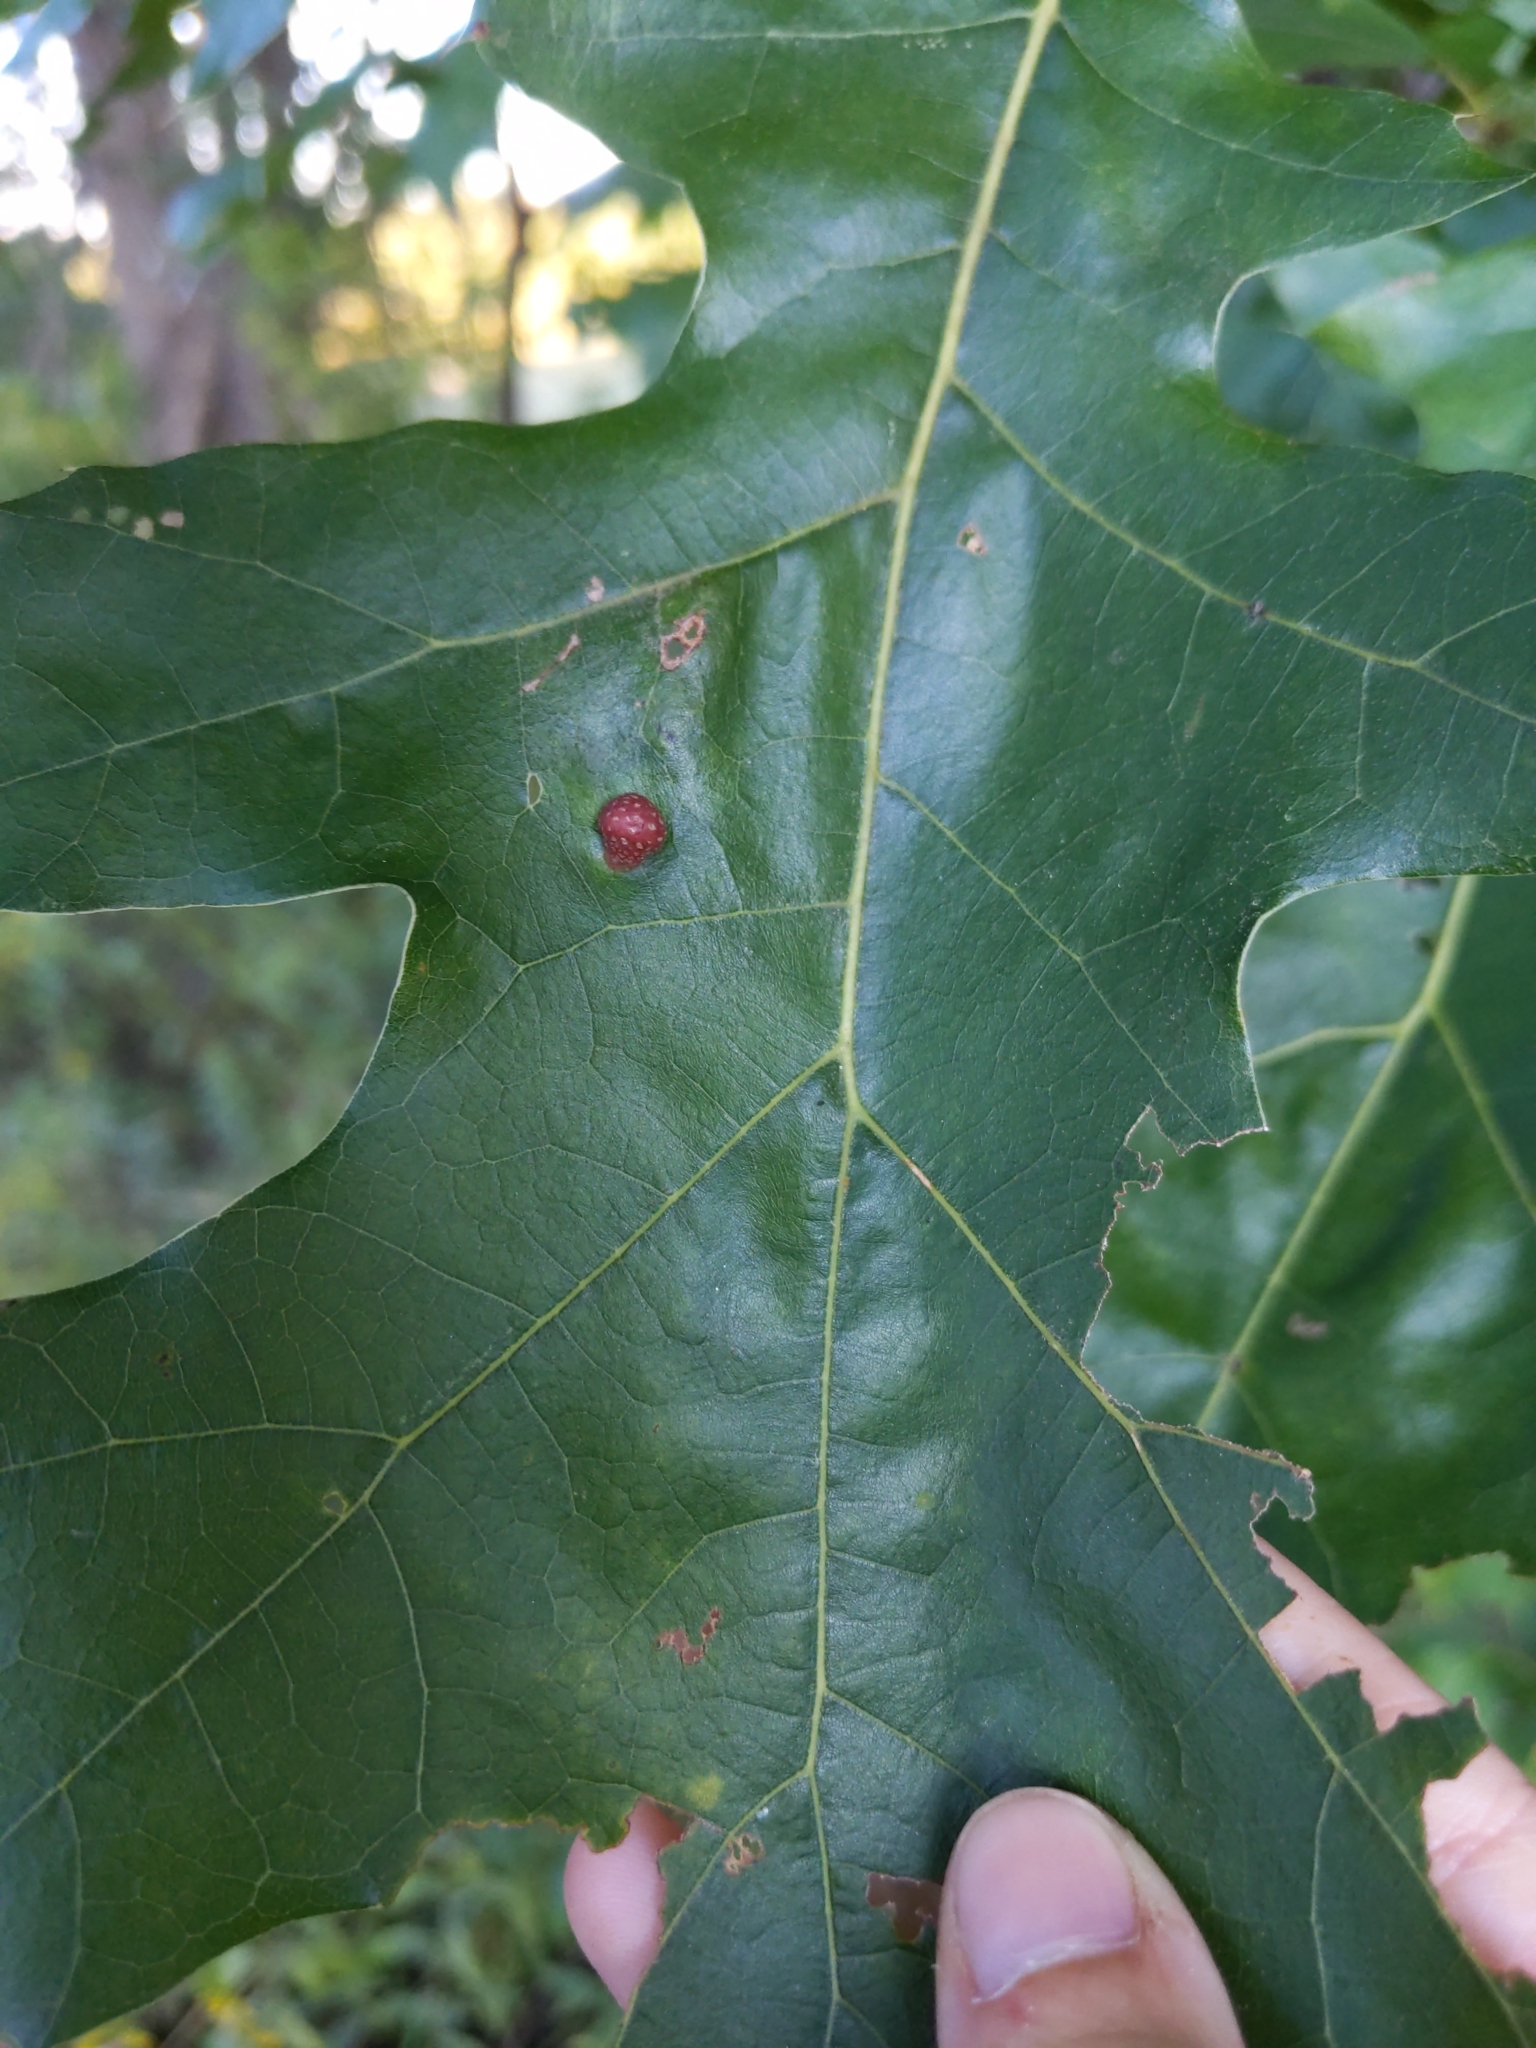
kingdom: Animalia
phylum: Arthropoda
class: Insecta
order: Diptera
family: Cecidomyiidae
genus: Polystepha
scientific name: Polystepha pilulae
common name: Oak leaf gall midge
